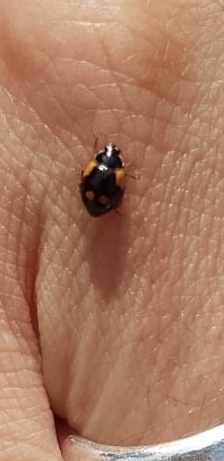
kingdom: Animalia
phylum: Arthropoda
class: Insecta
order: Coleoptera
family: Coccinellidae
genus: Adalia
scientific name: Adalia bipunctata
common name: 2-spot ladybird
